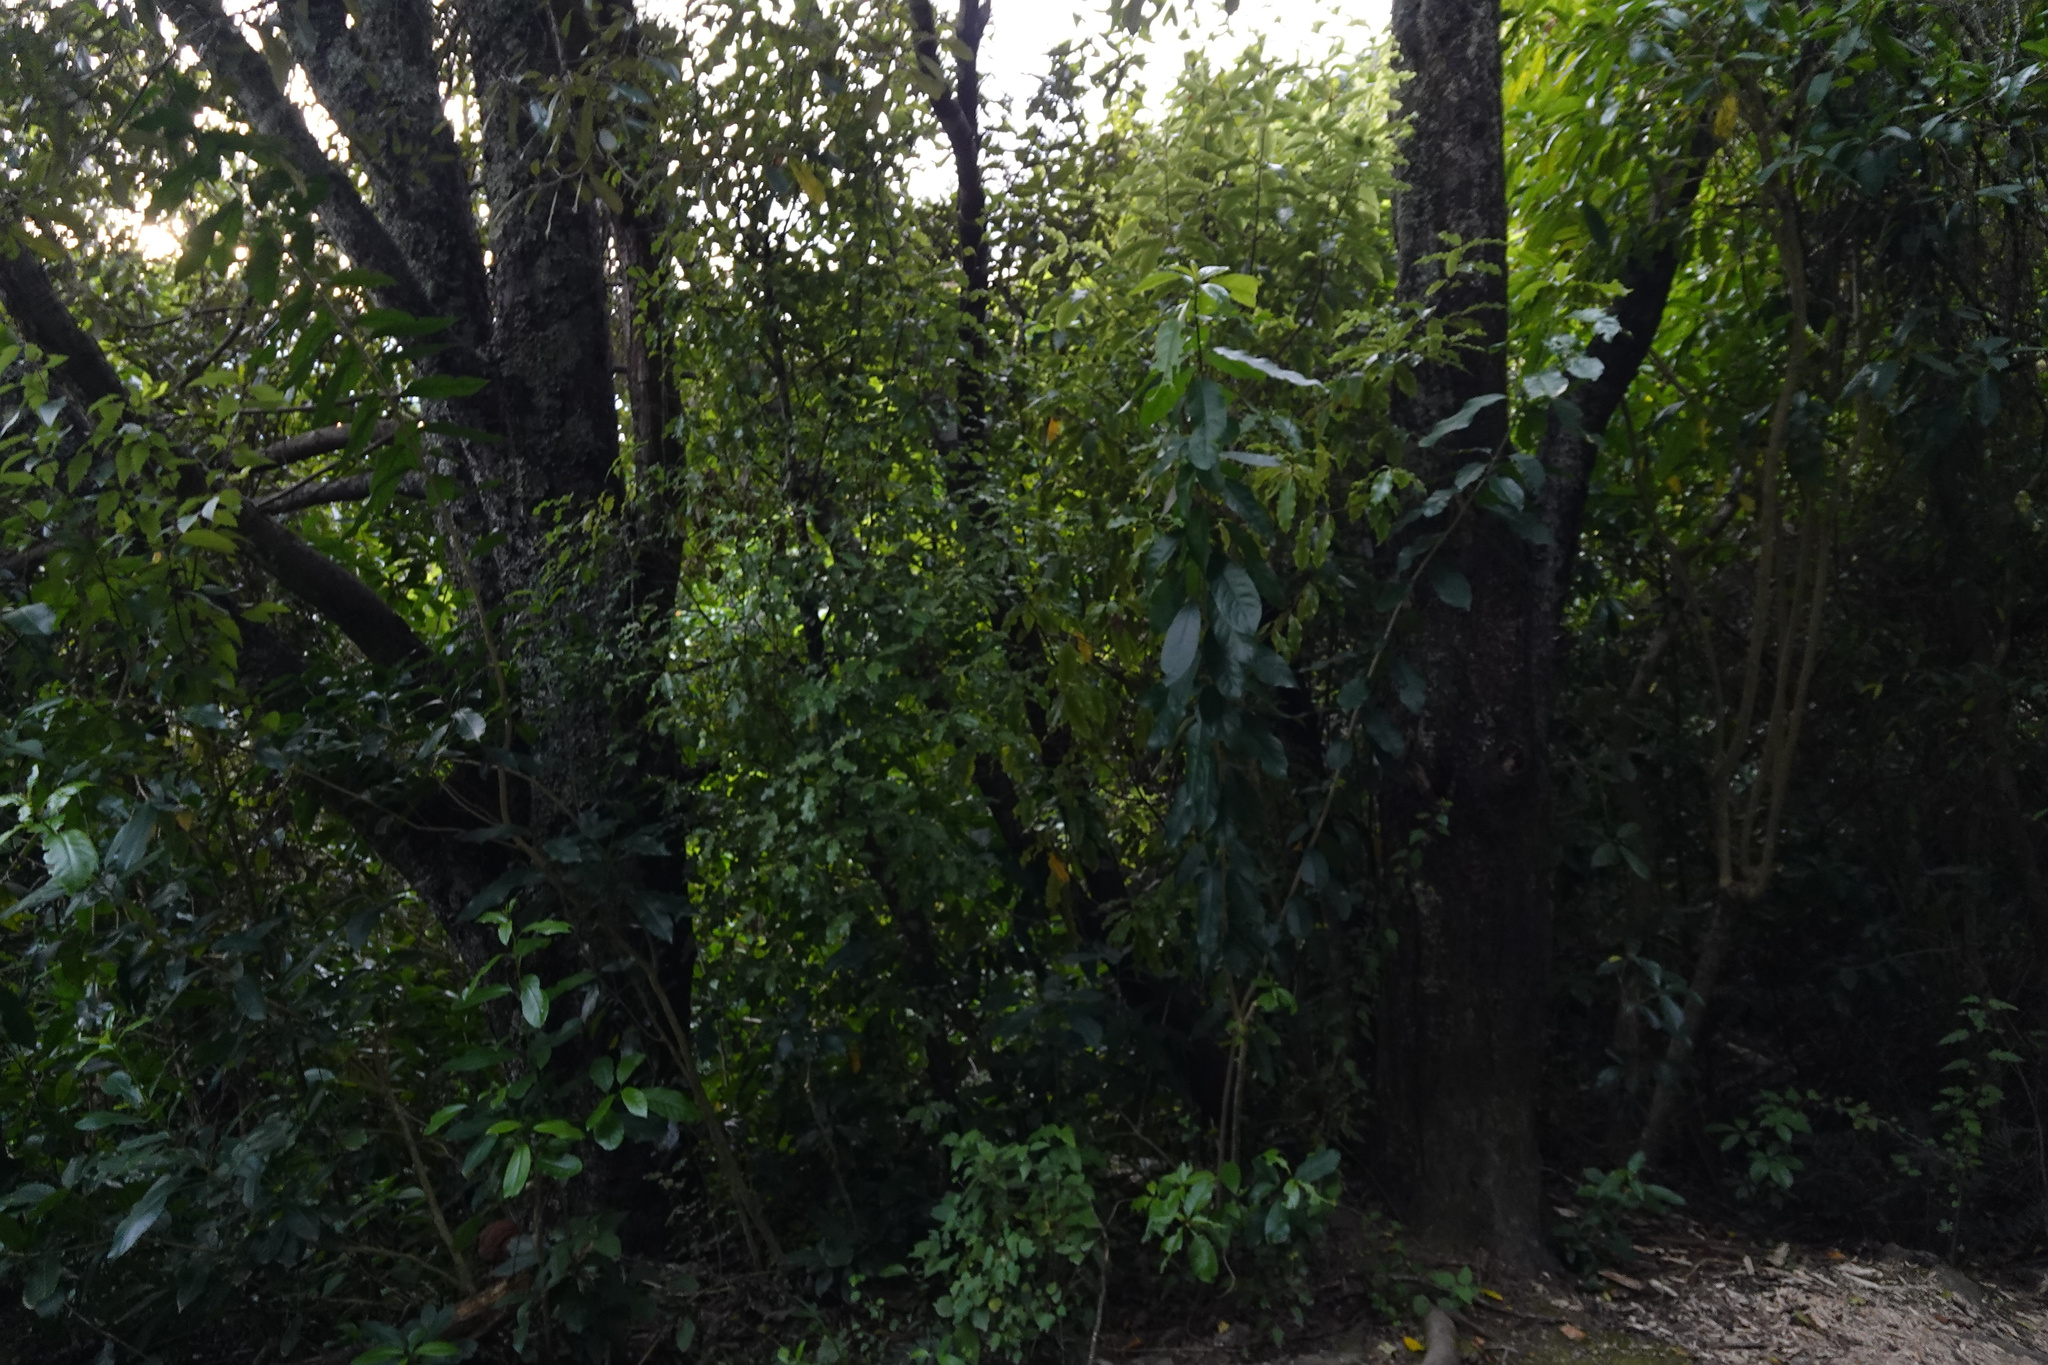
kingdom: Plantae
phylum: Tracheophyta
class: Magnoliopsida
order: Malpighiales
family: Violaceae
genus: Melicytus
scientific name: Melicytus ramiflorus
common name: Mahoe
